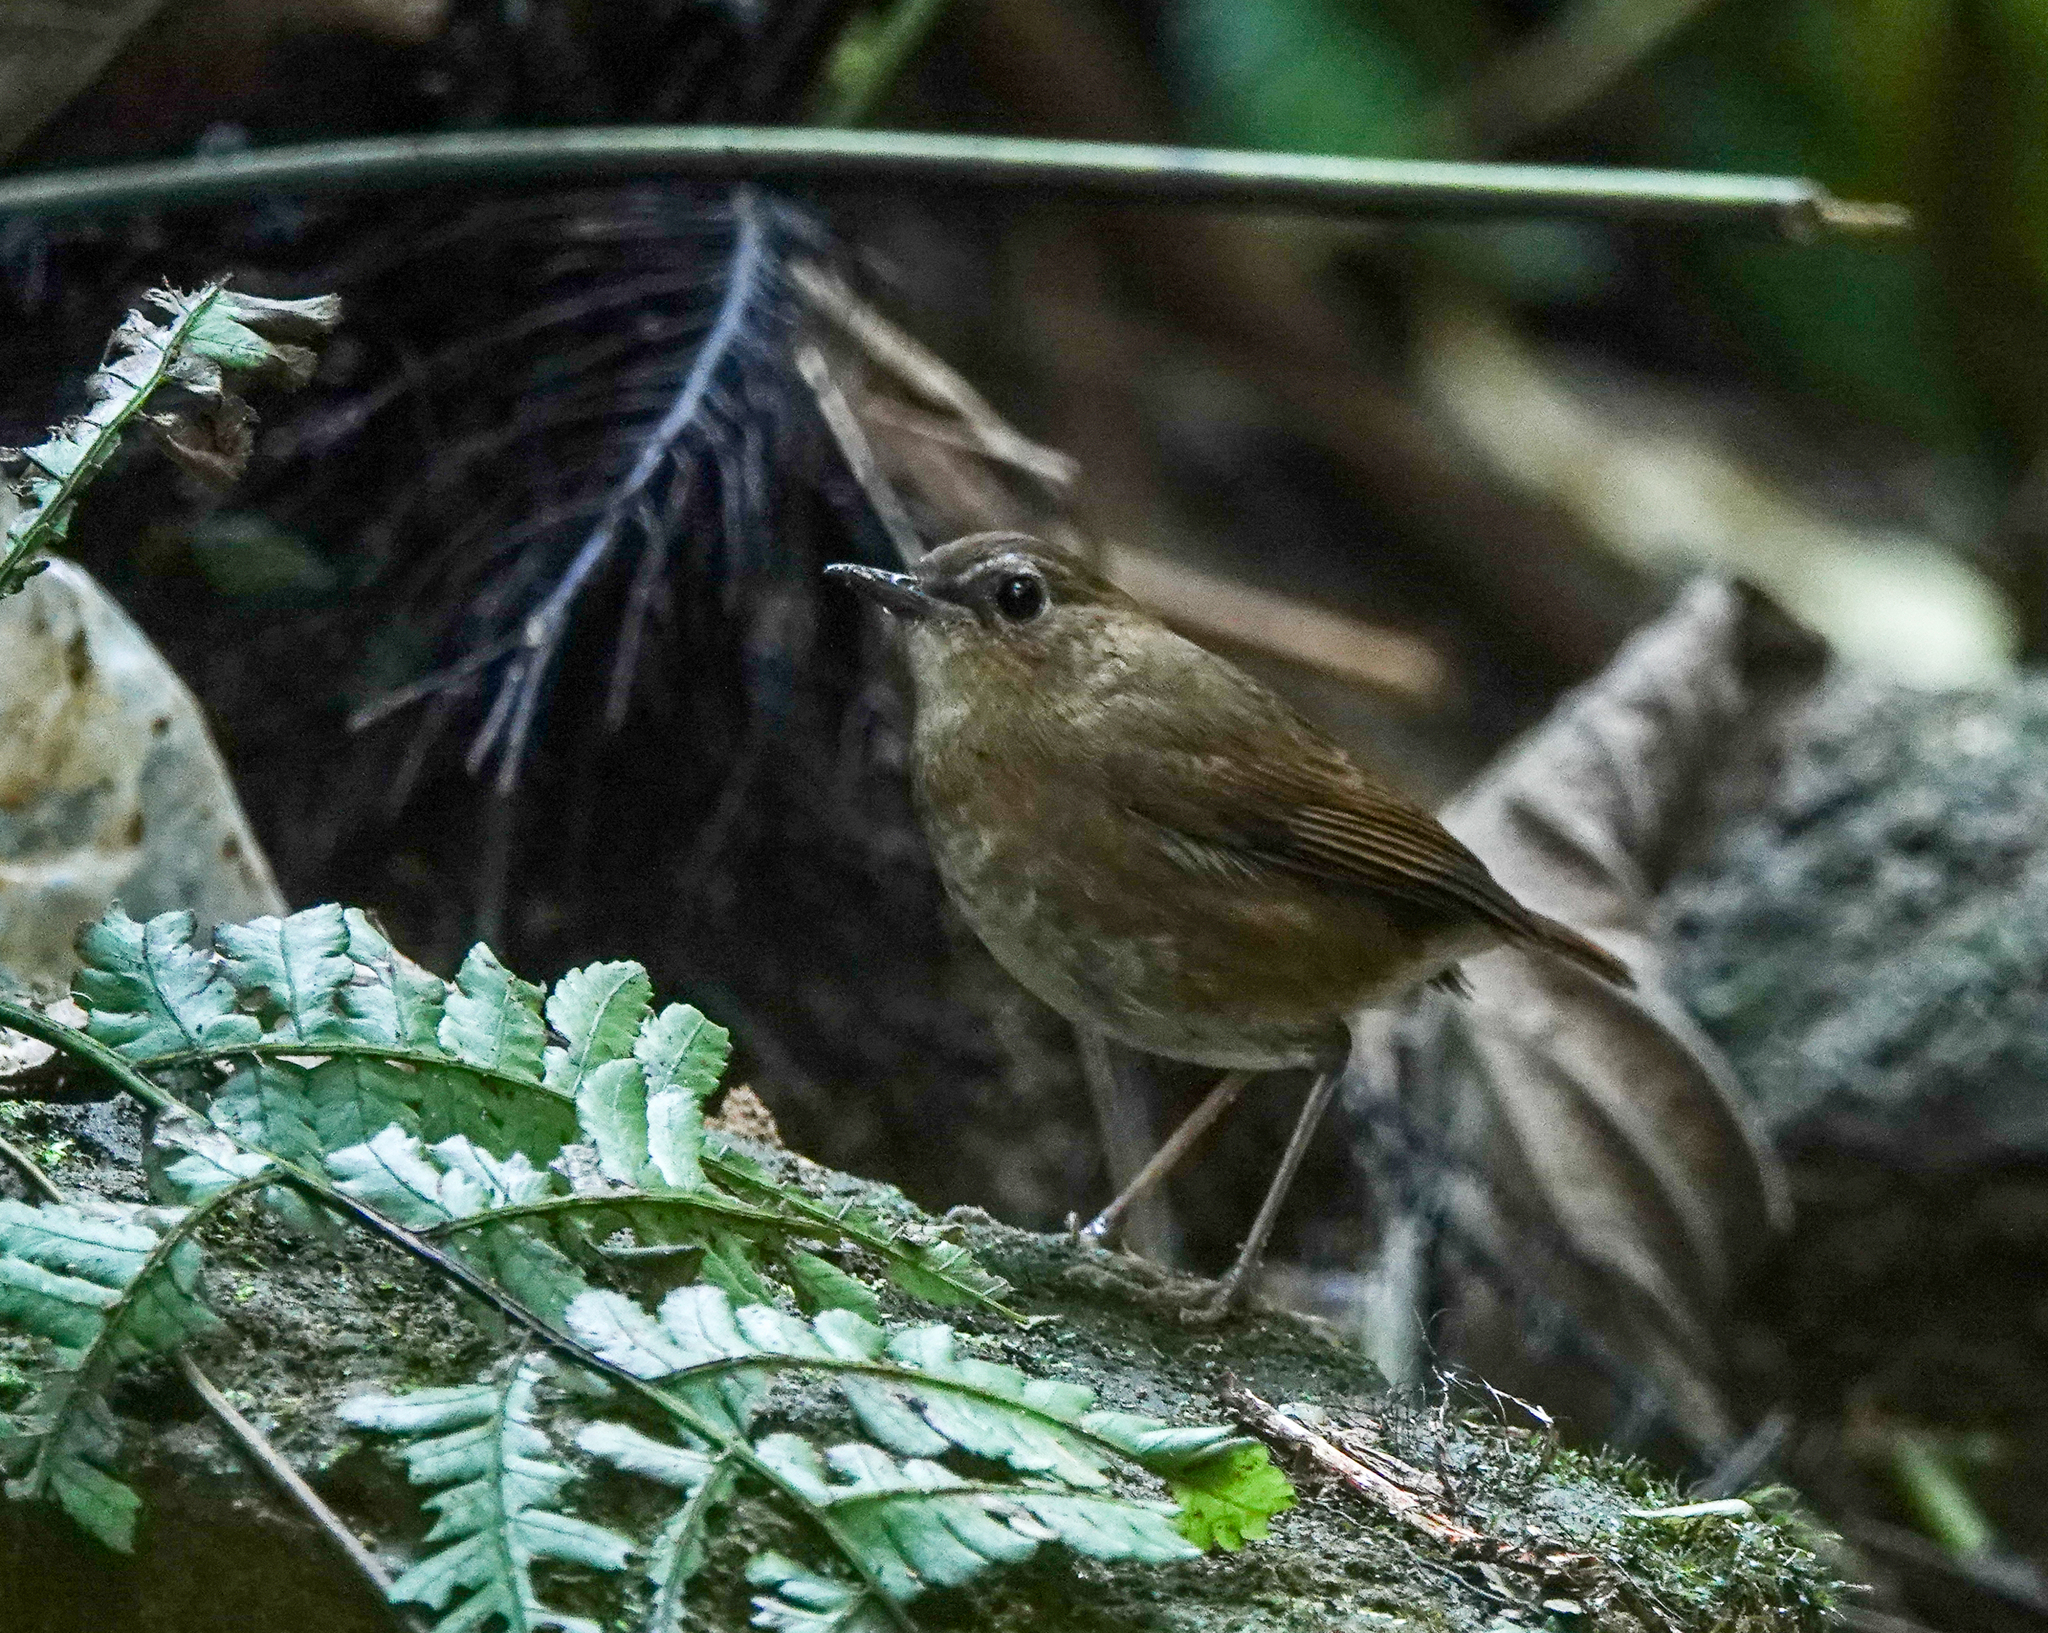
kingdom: Animalia
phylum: Chordata
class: Aves
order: Passeriformes
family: Muscicapidae
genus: Brachypteryx
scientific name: Brachypteryx leucophris
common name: Lesser shortwing
